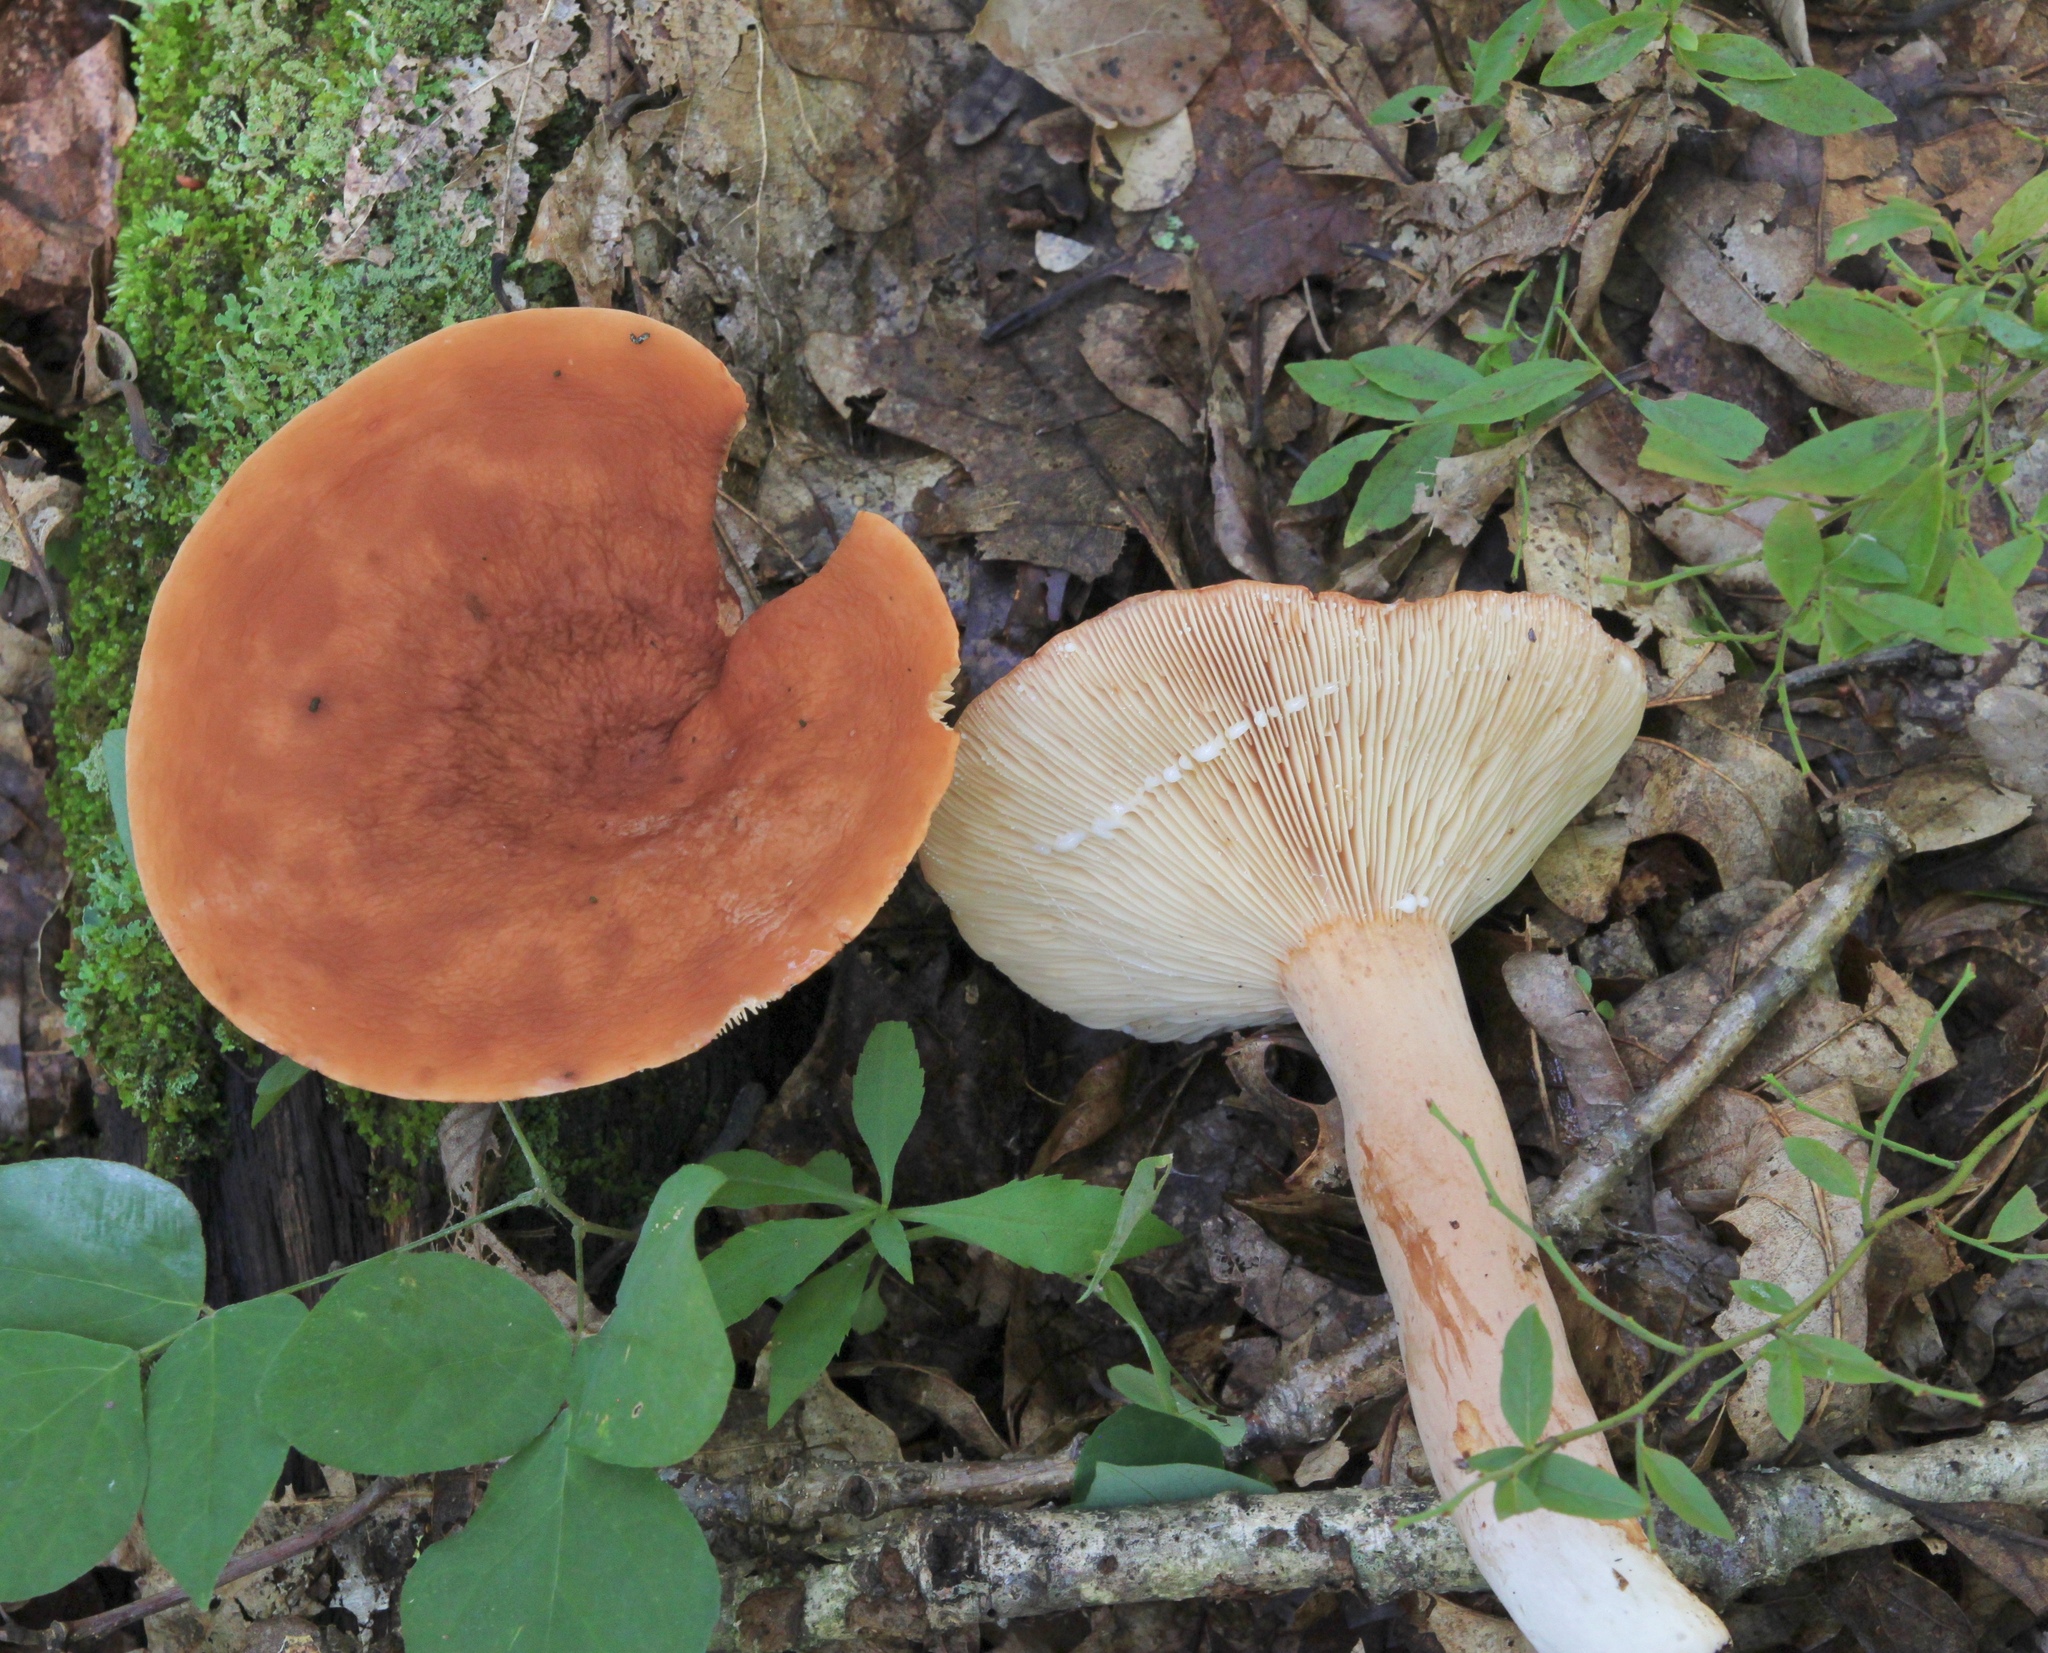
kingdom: Fungi
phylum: Basidiomycota
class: Agaricomycetes
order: Russulales
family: Russulaceae
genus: Lactifluus
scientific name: Lactifluus volemus
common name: Fishy milkcap
